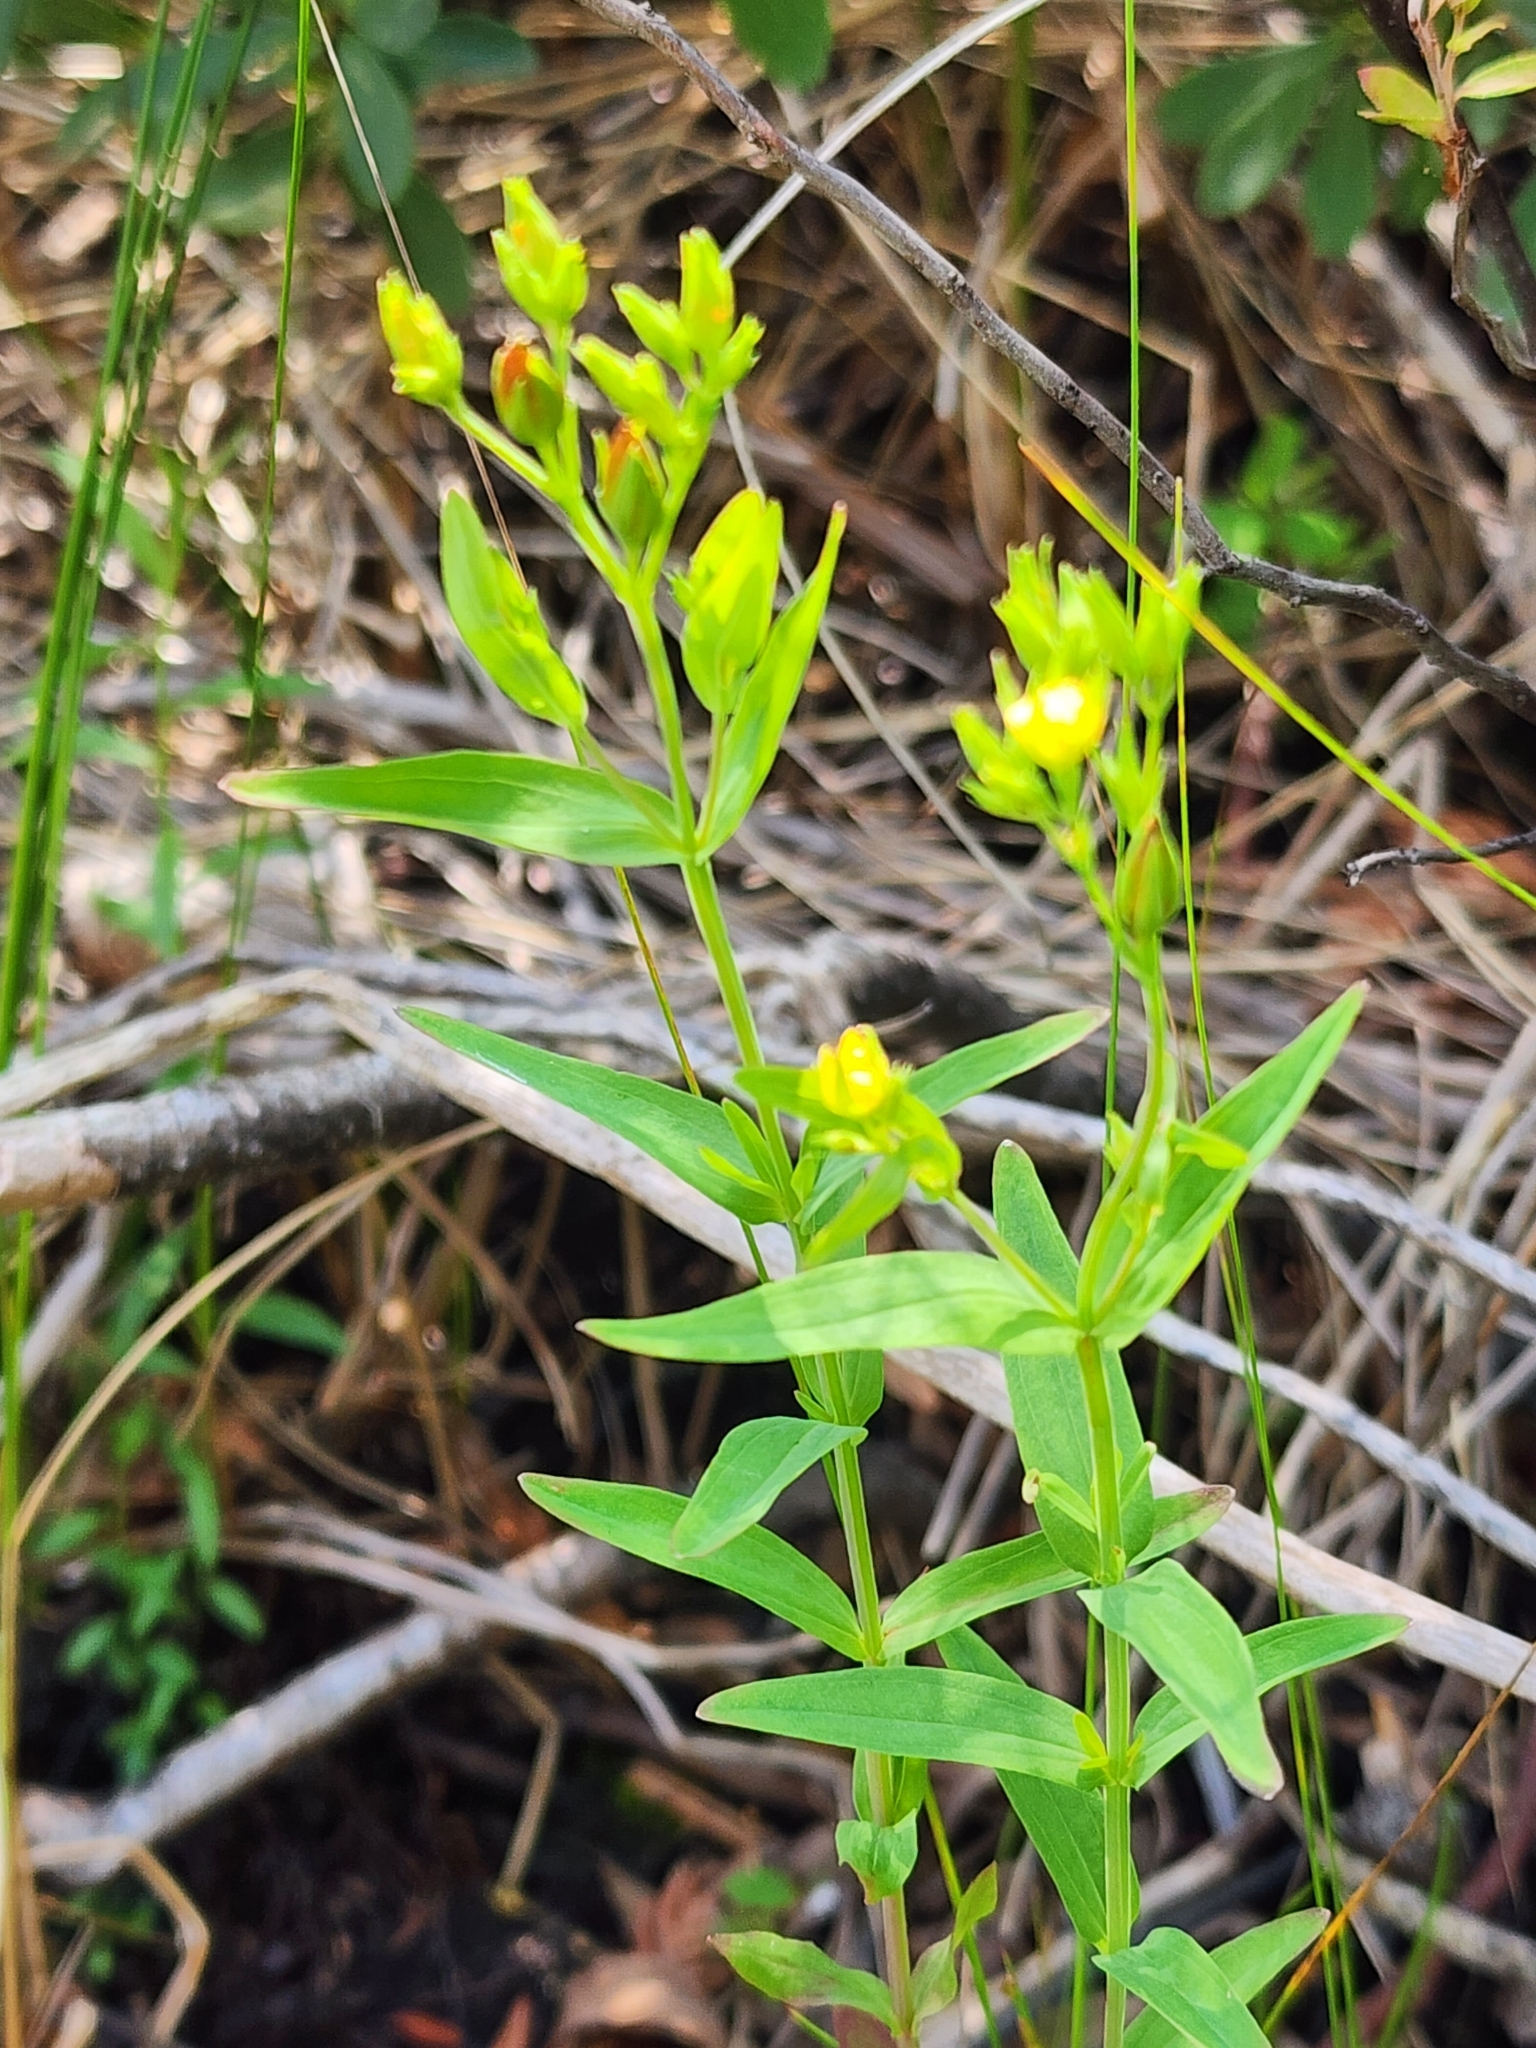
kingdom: Plantae
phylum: Tracheophyta
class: Magnoliopsida
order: Malpighiales
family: Hypericaceae
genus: Hypericum
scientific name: Hypericum majus
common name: Greater canadian st. john's-wort
